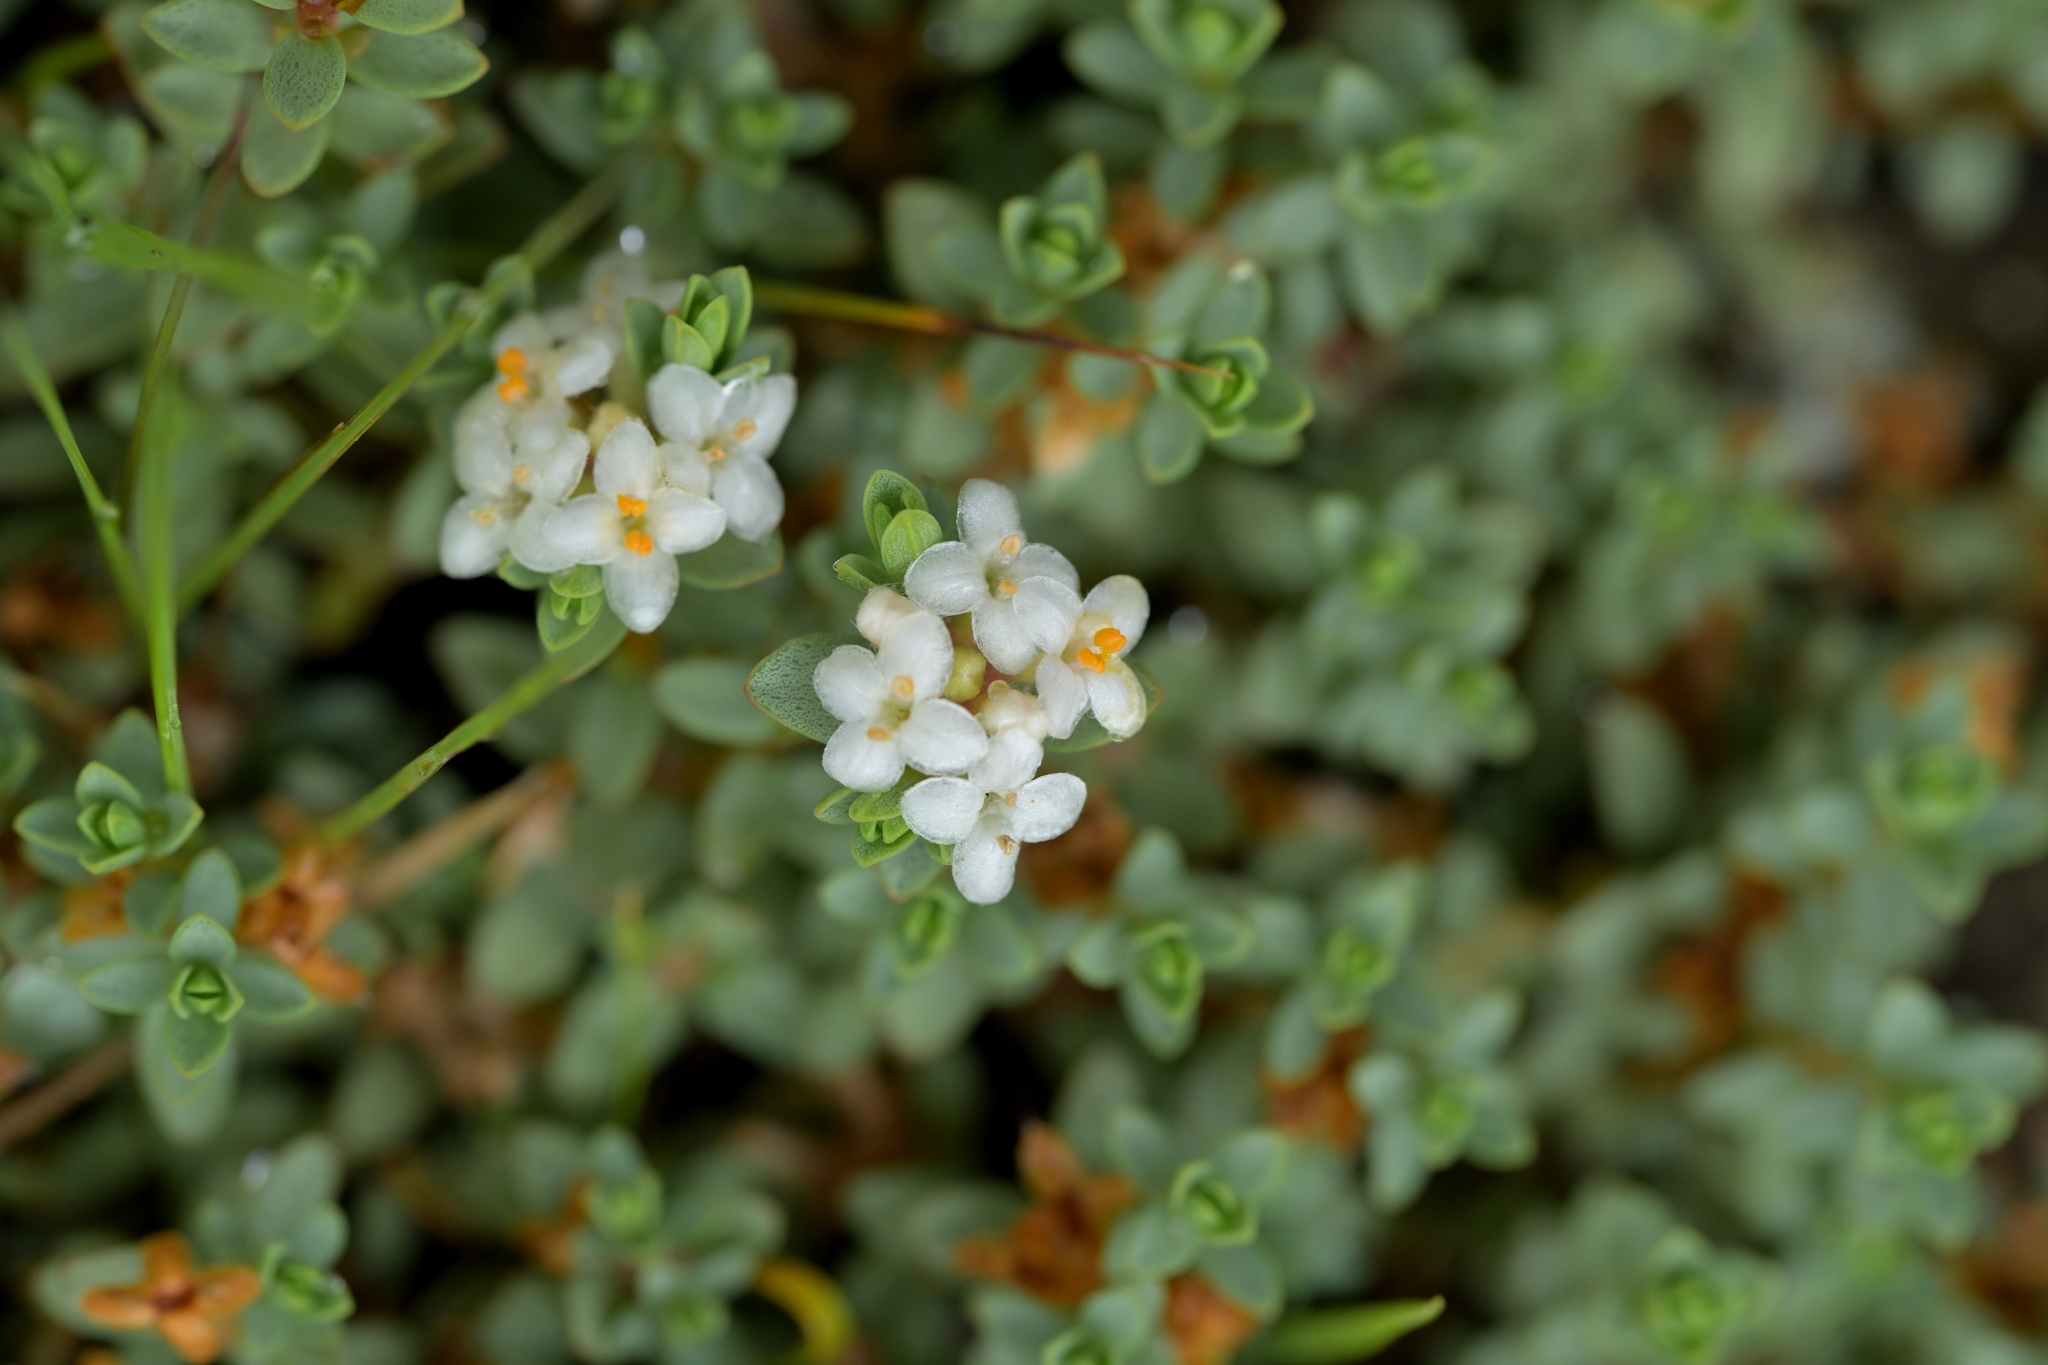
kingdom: Plantae
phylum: Tracheophyta
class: Magnoliopsida
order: Malvales
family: Thymelaeaceae
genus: Pimelea
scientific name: Pimelea prostrata
